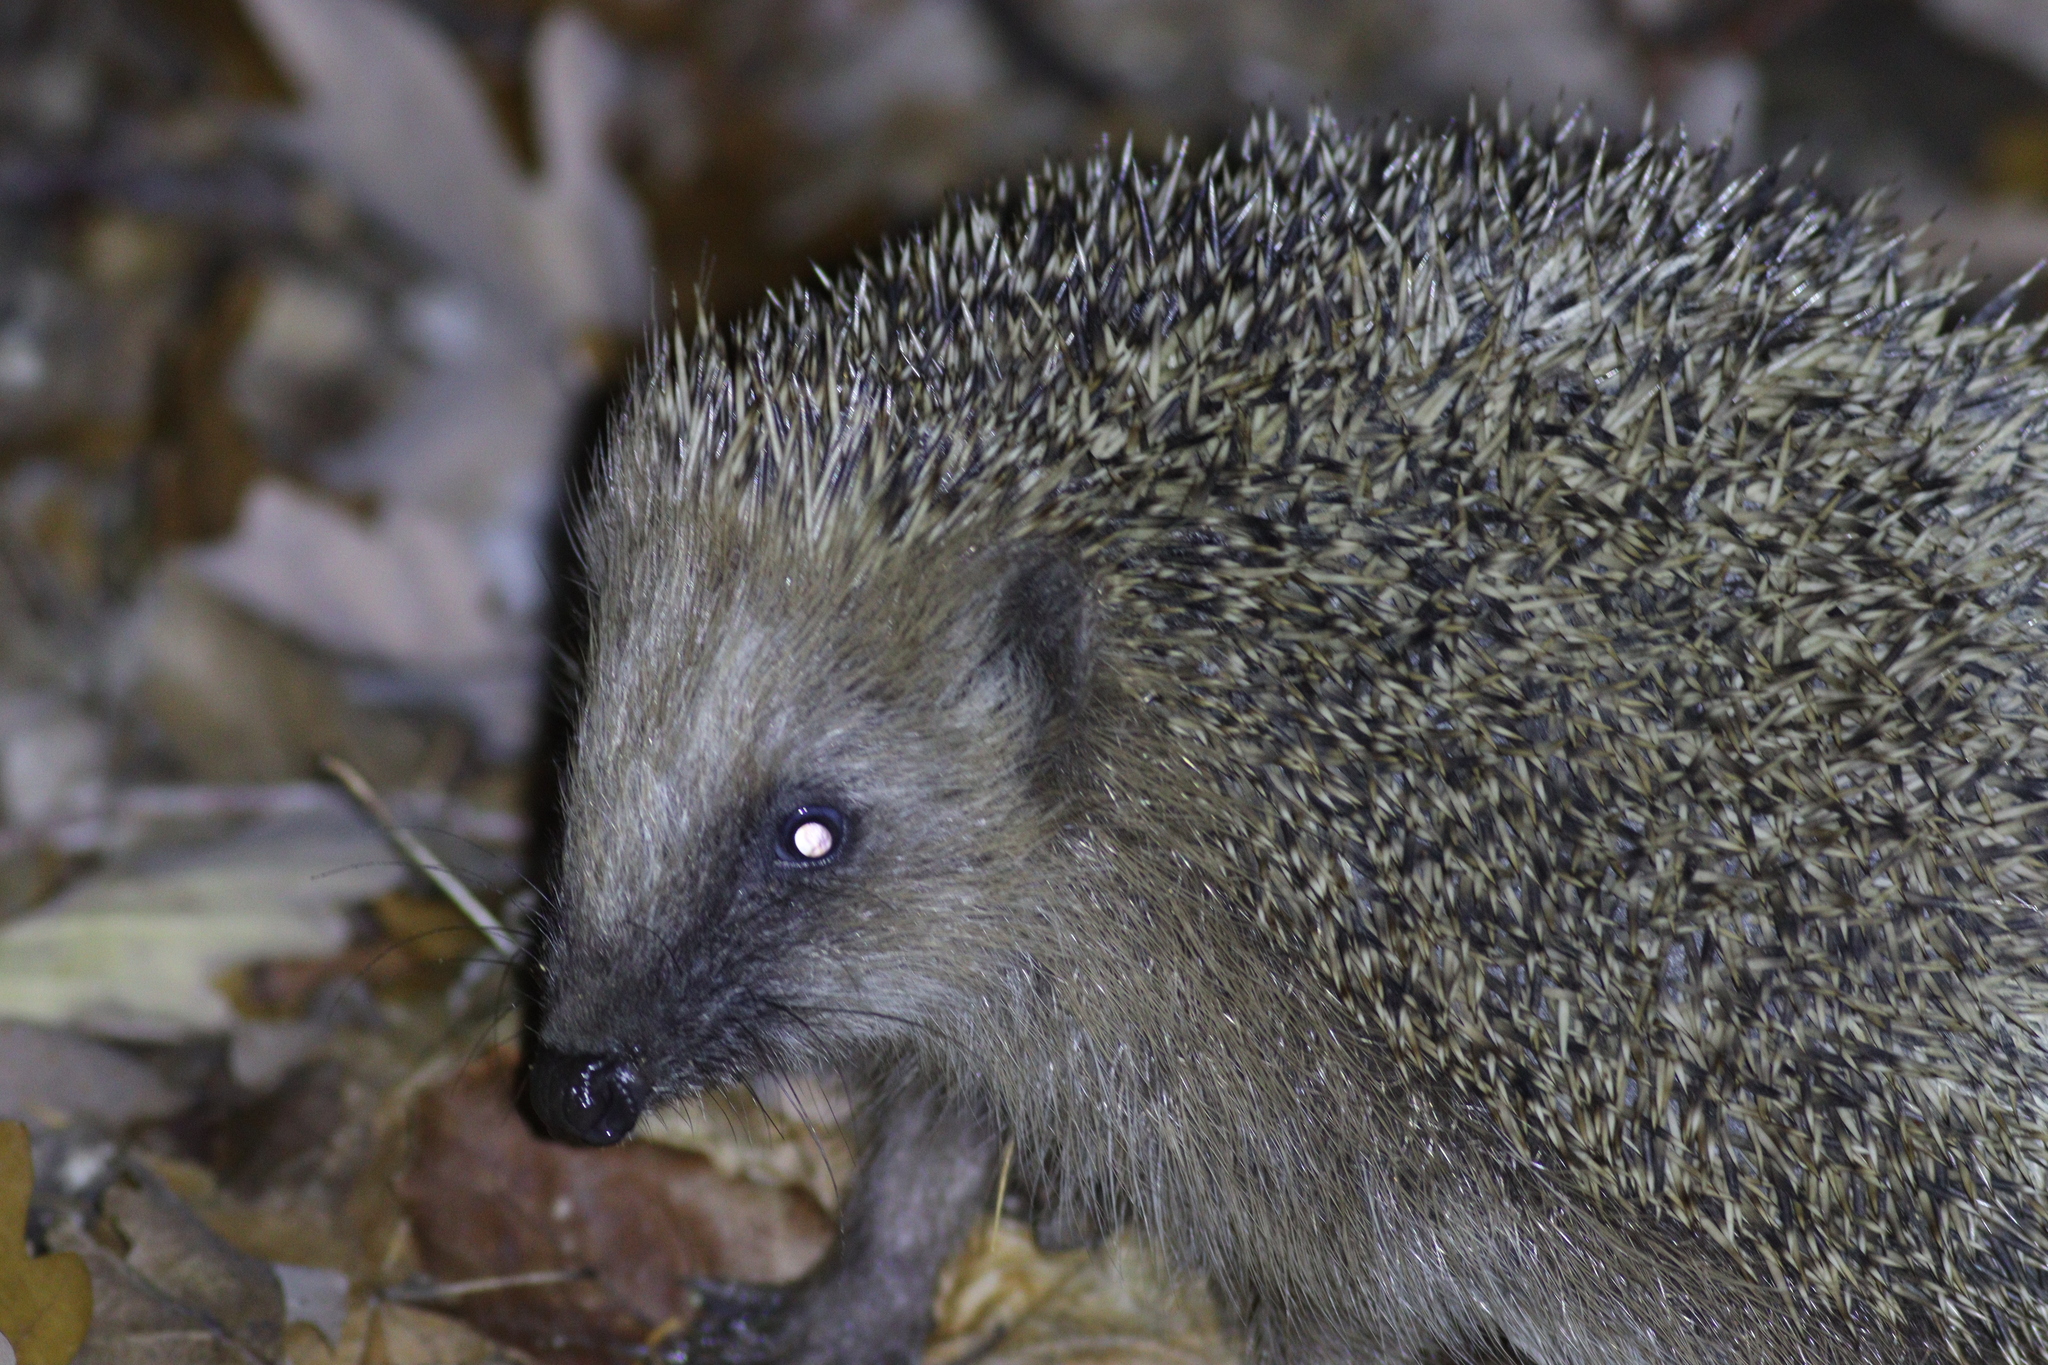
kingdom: Animalia
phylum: Chordata
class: Mammalia
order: Erinaceomorpha
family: Erinaceidae
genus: Erinaceus
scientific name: Erinaceus europaeus
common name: West european hedgehog
